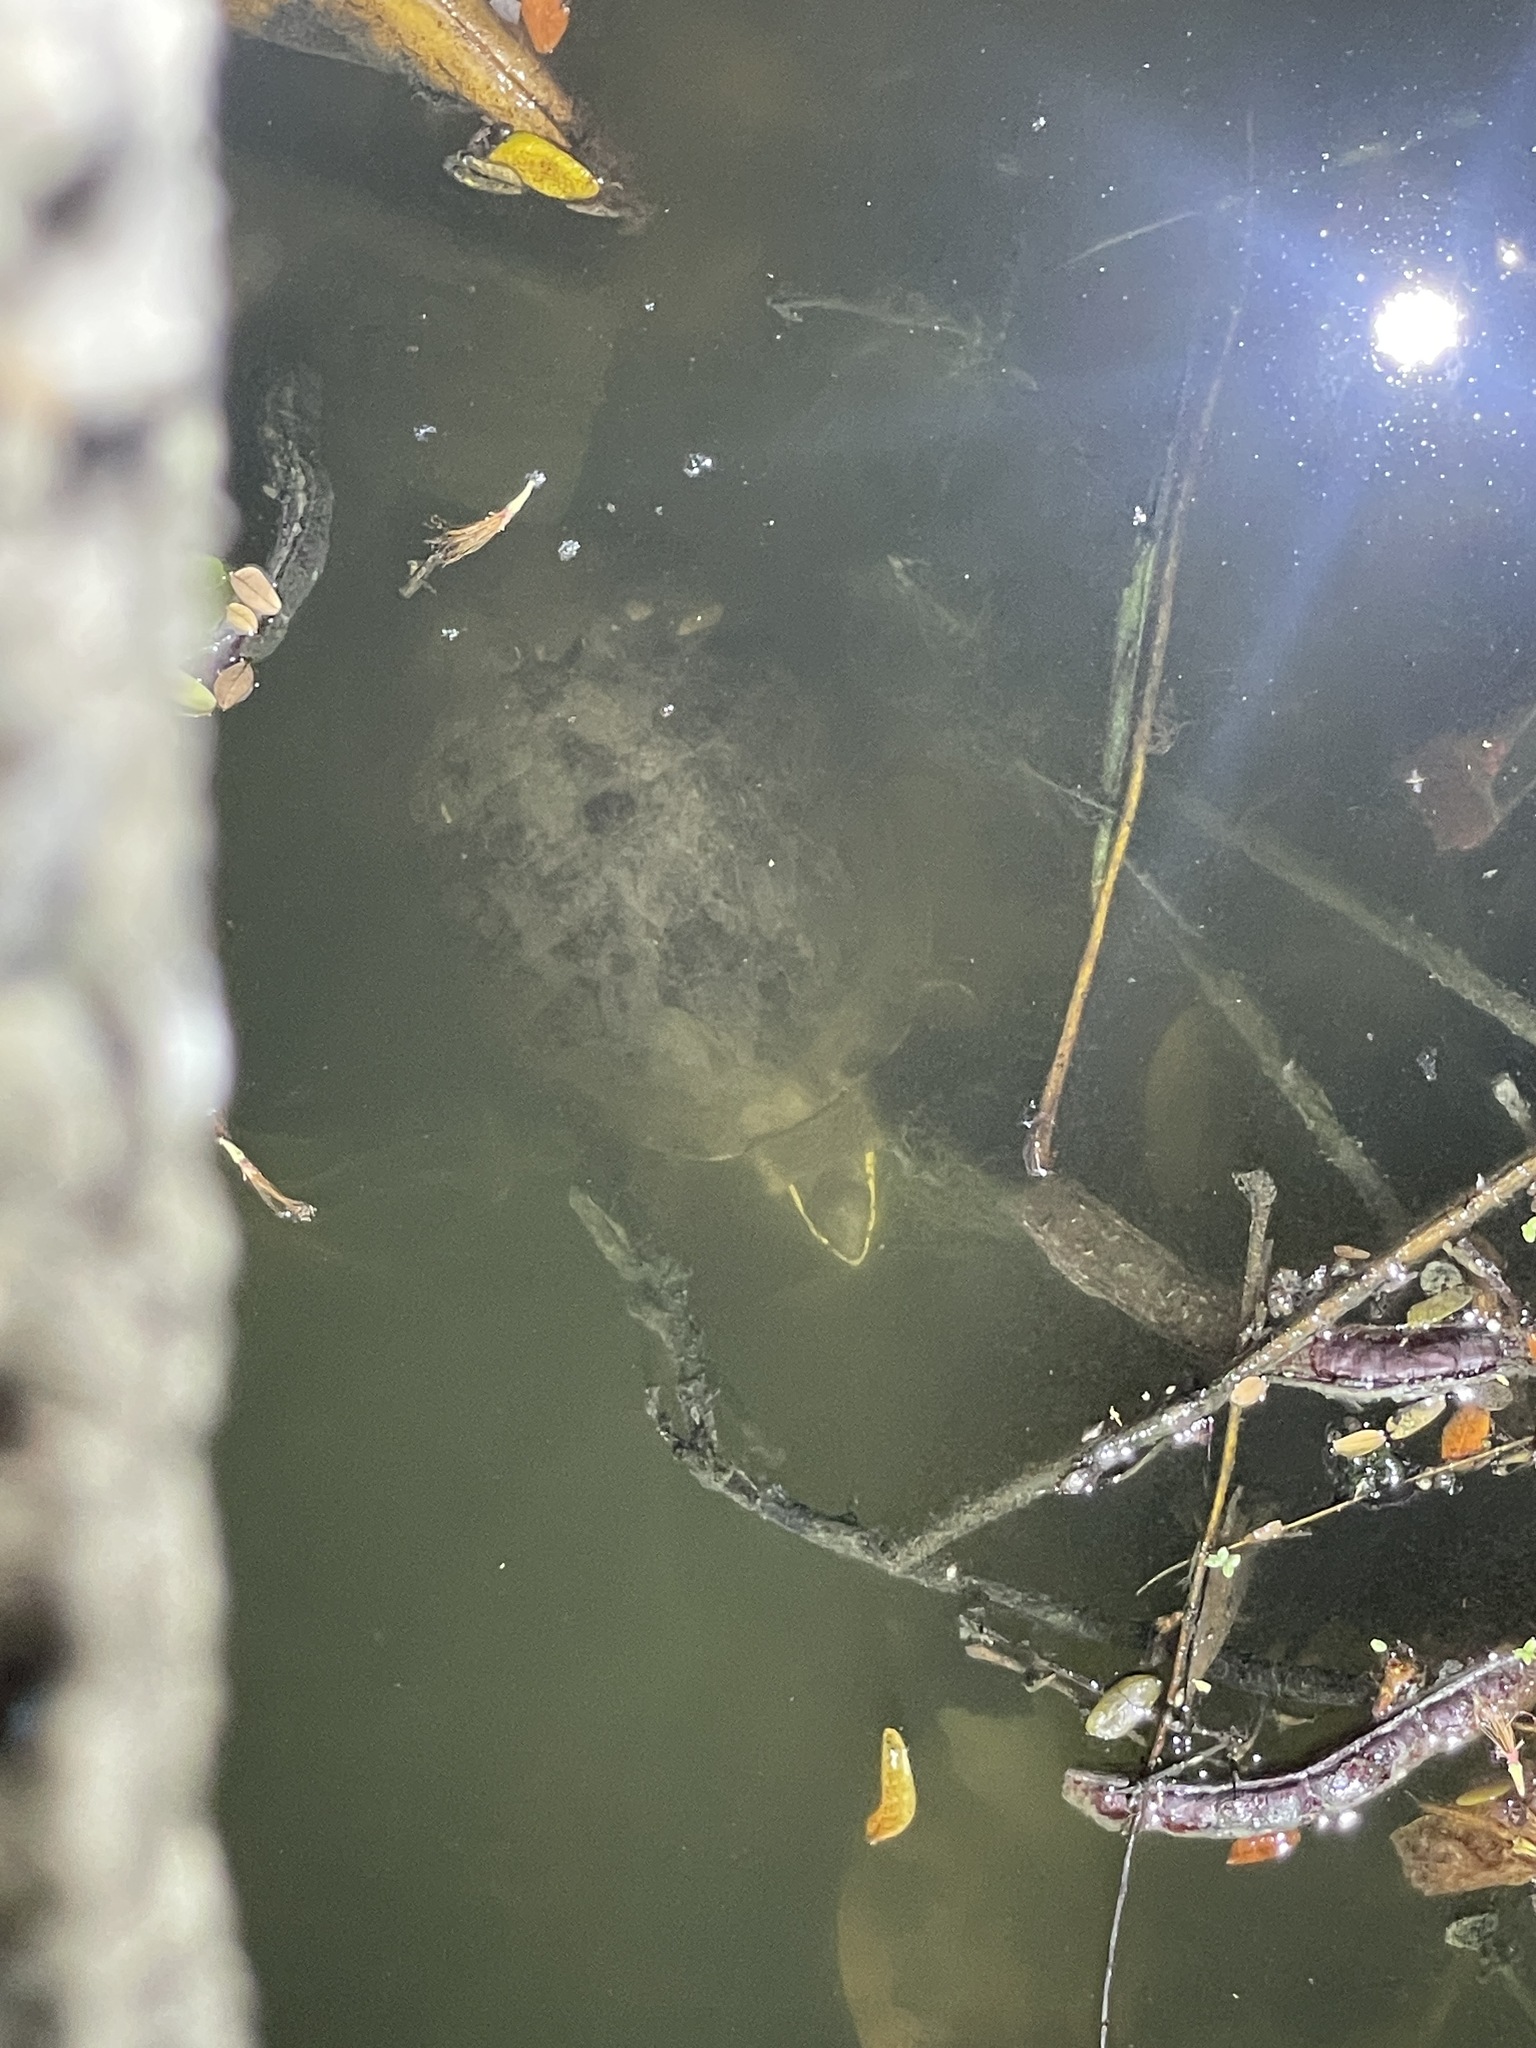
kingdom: Animalia
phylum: Chordata
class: Testudines
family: Geoemydidae
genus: Cuora
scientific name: Cuora
